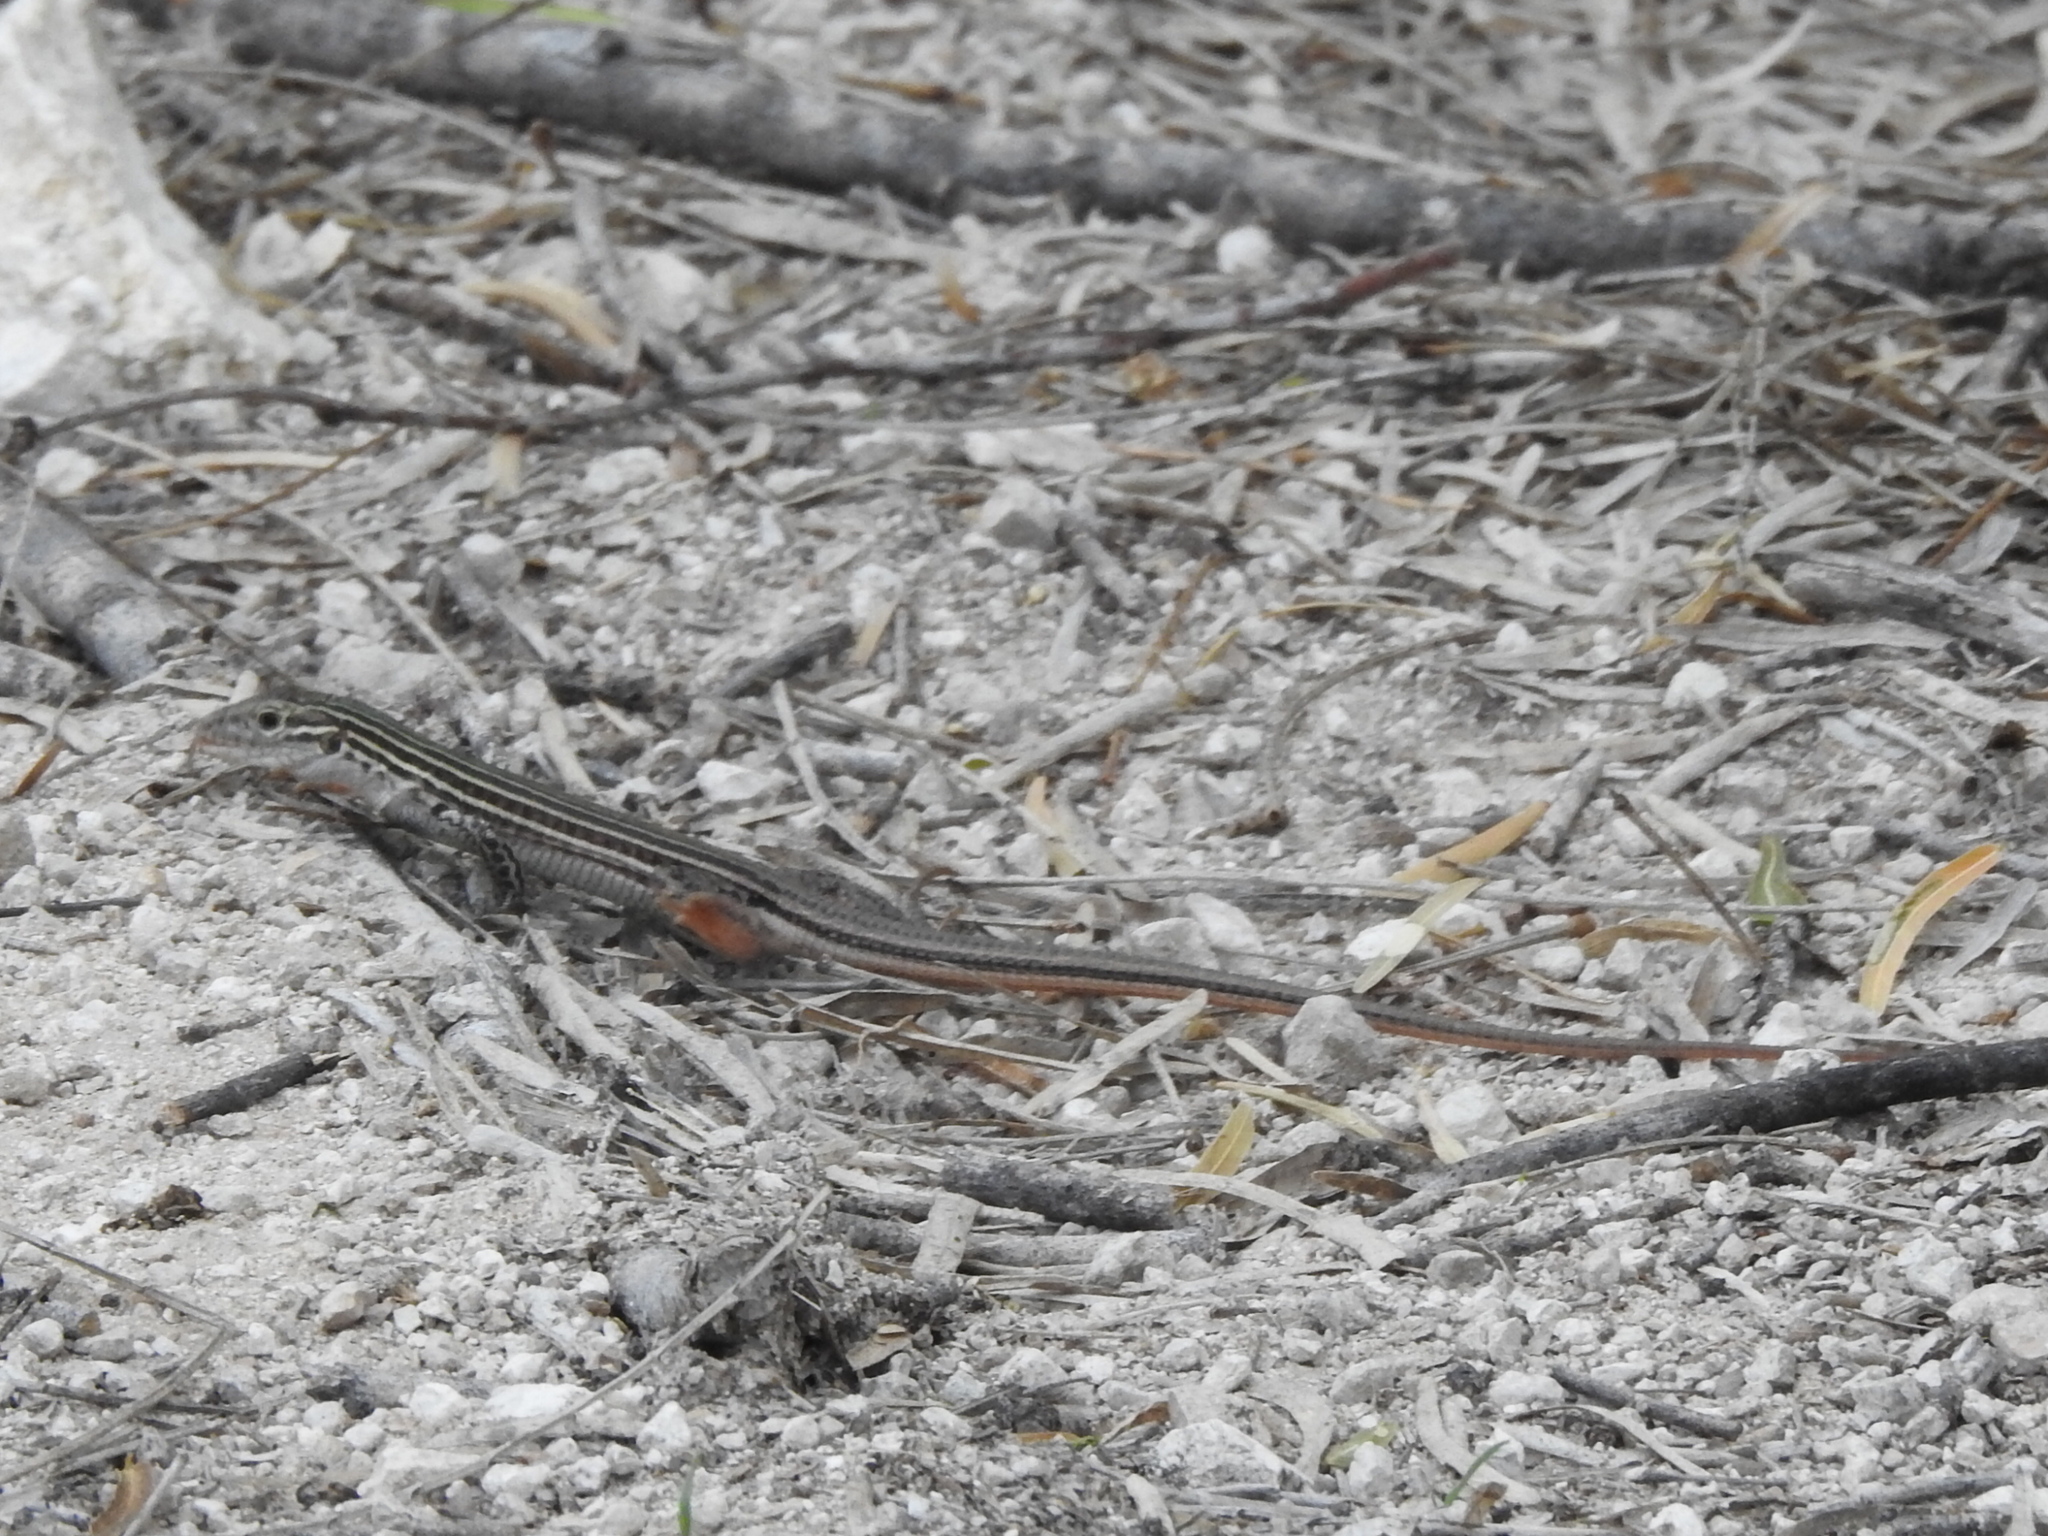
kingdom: Animalia
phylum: Chordata
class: Squamata
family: Teiidae
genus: Aspidoscelis
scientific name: Aspidoscelis gularis
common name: Eastern spotted whiptail
